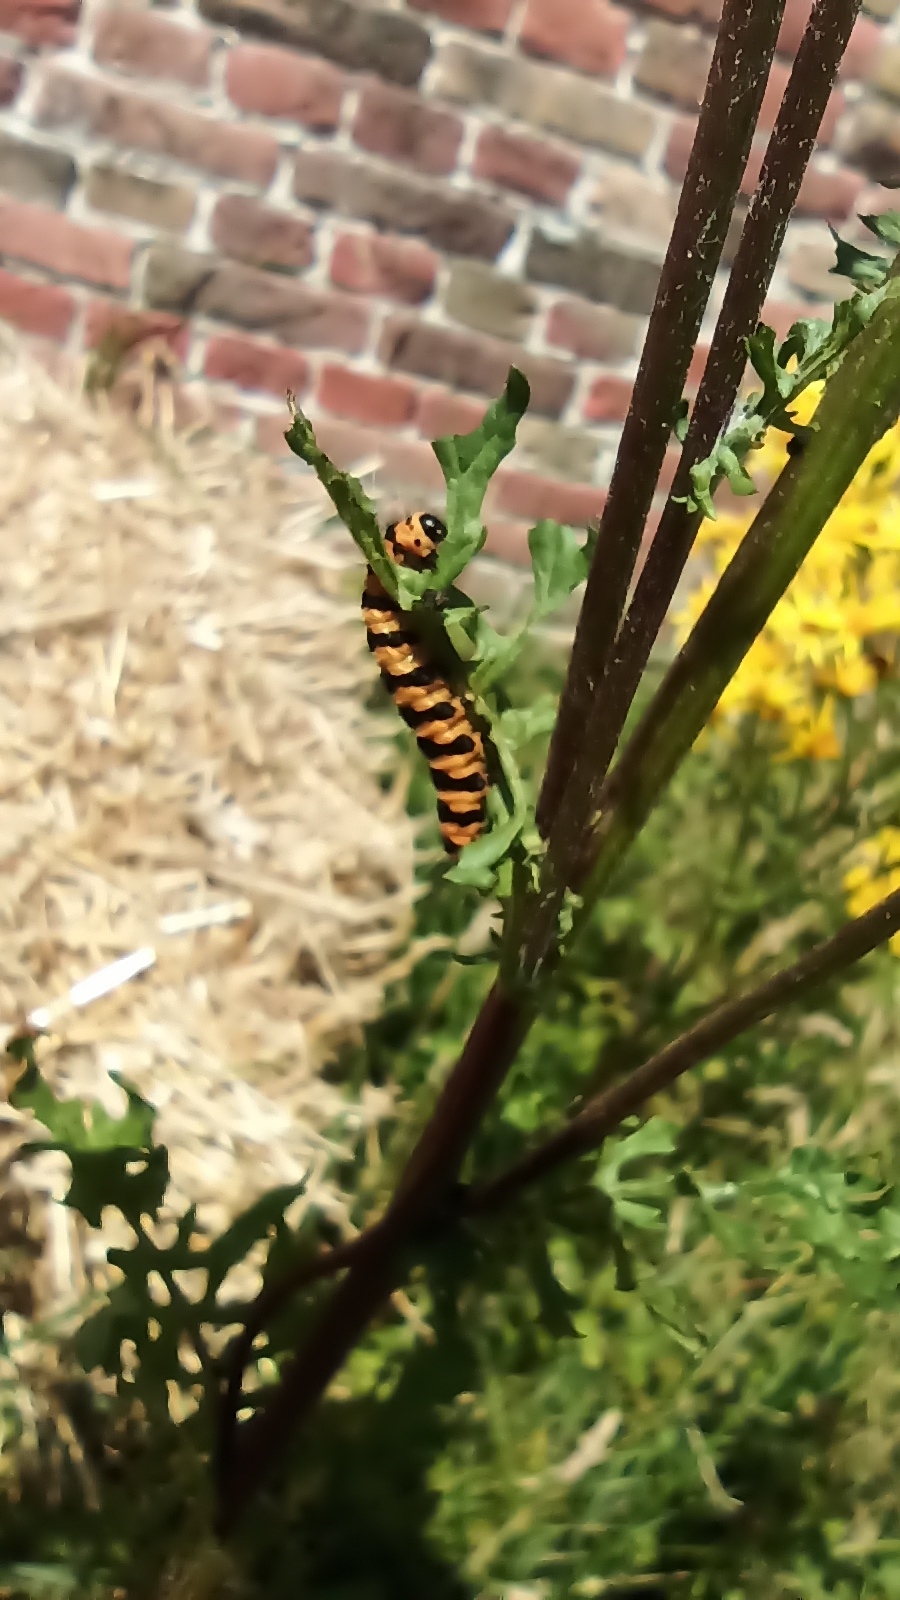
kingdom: Animalia
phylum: Arthropoda
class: Insecta
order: Lepidoptera
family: Erebidae
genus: Tyria
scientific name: Tyria jacobaeae
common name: Cinnabar
